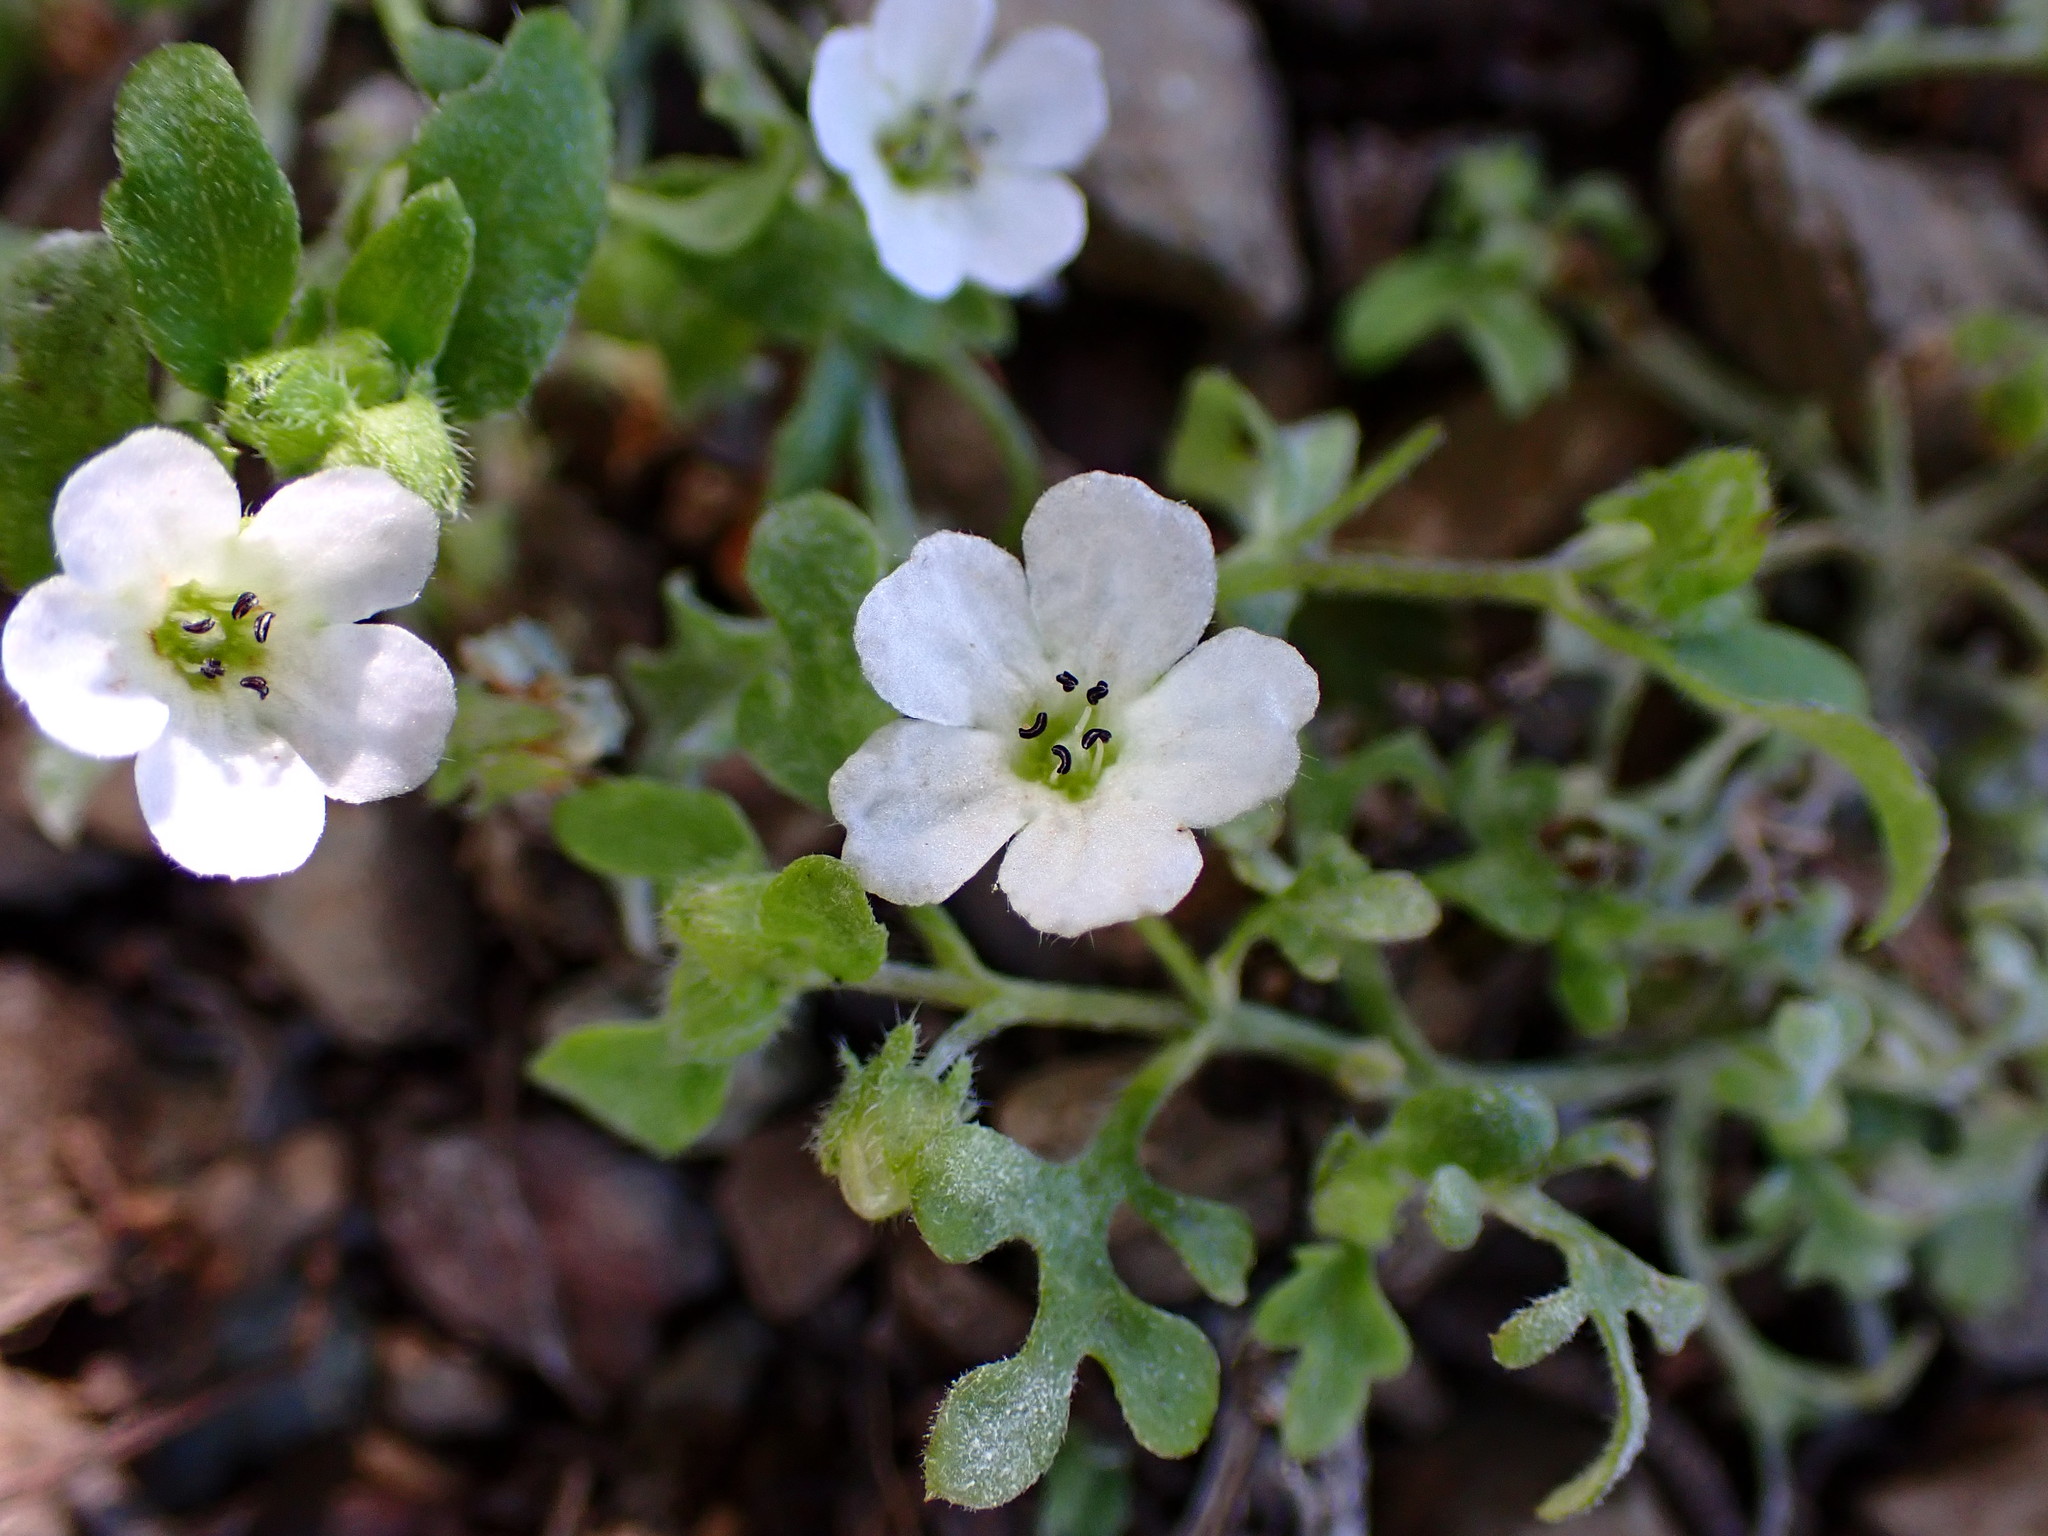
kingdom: Plantae
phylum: Tracheophyta
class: Magnoliopsida
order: Boraginales
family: Hydrophyllaceae
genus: Nemophila
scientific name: Nemophila heterophylla
